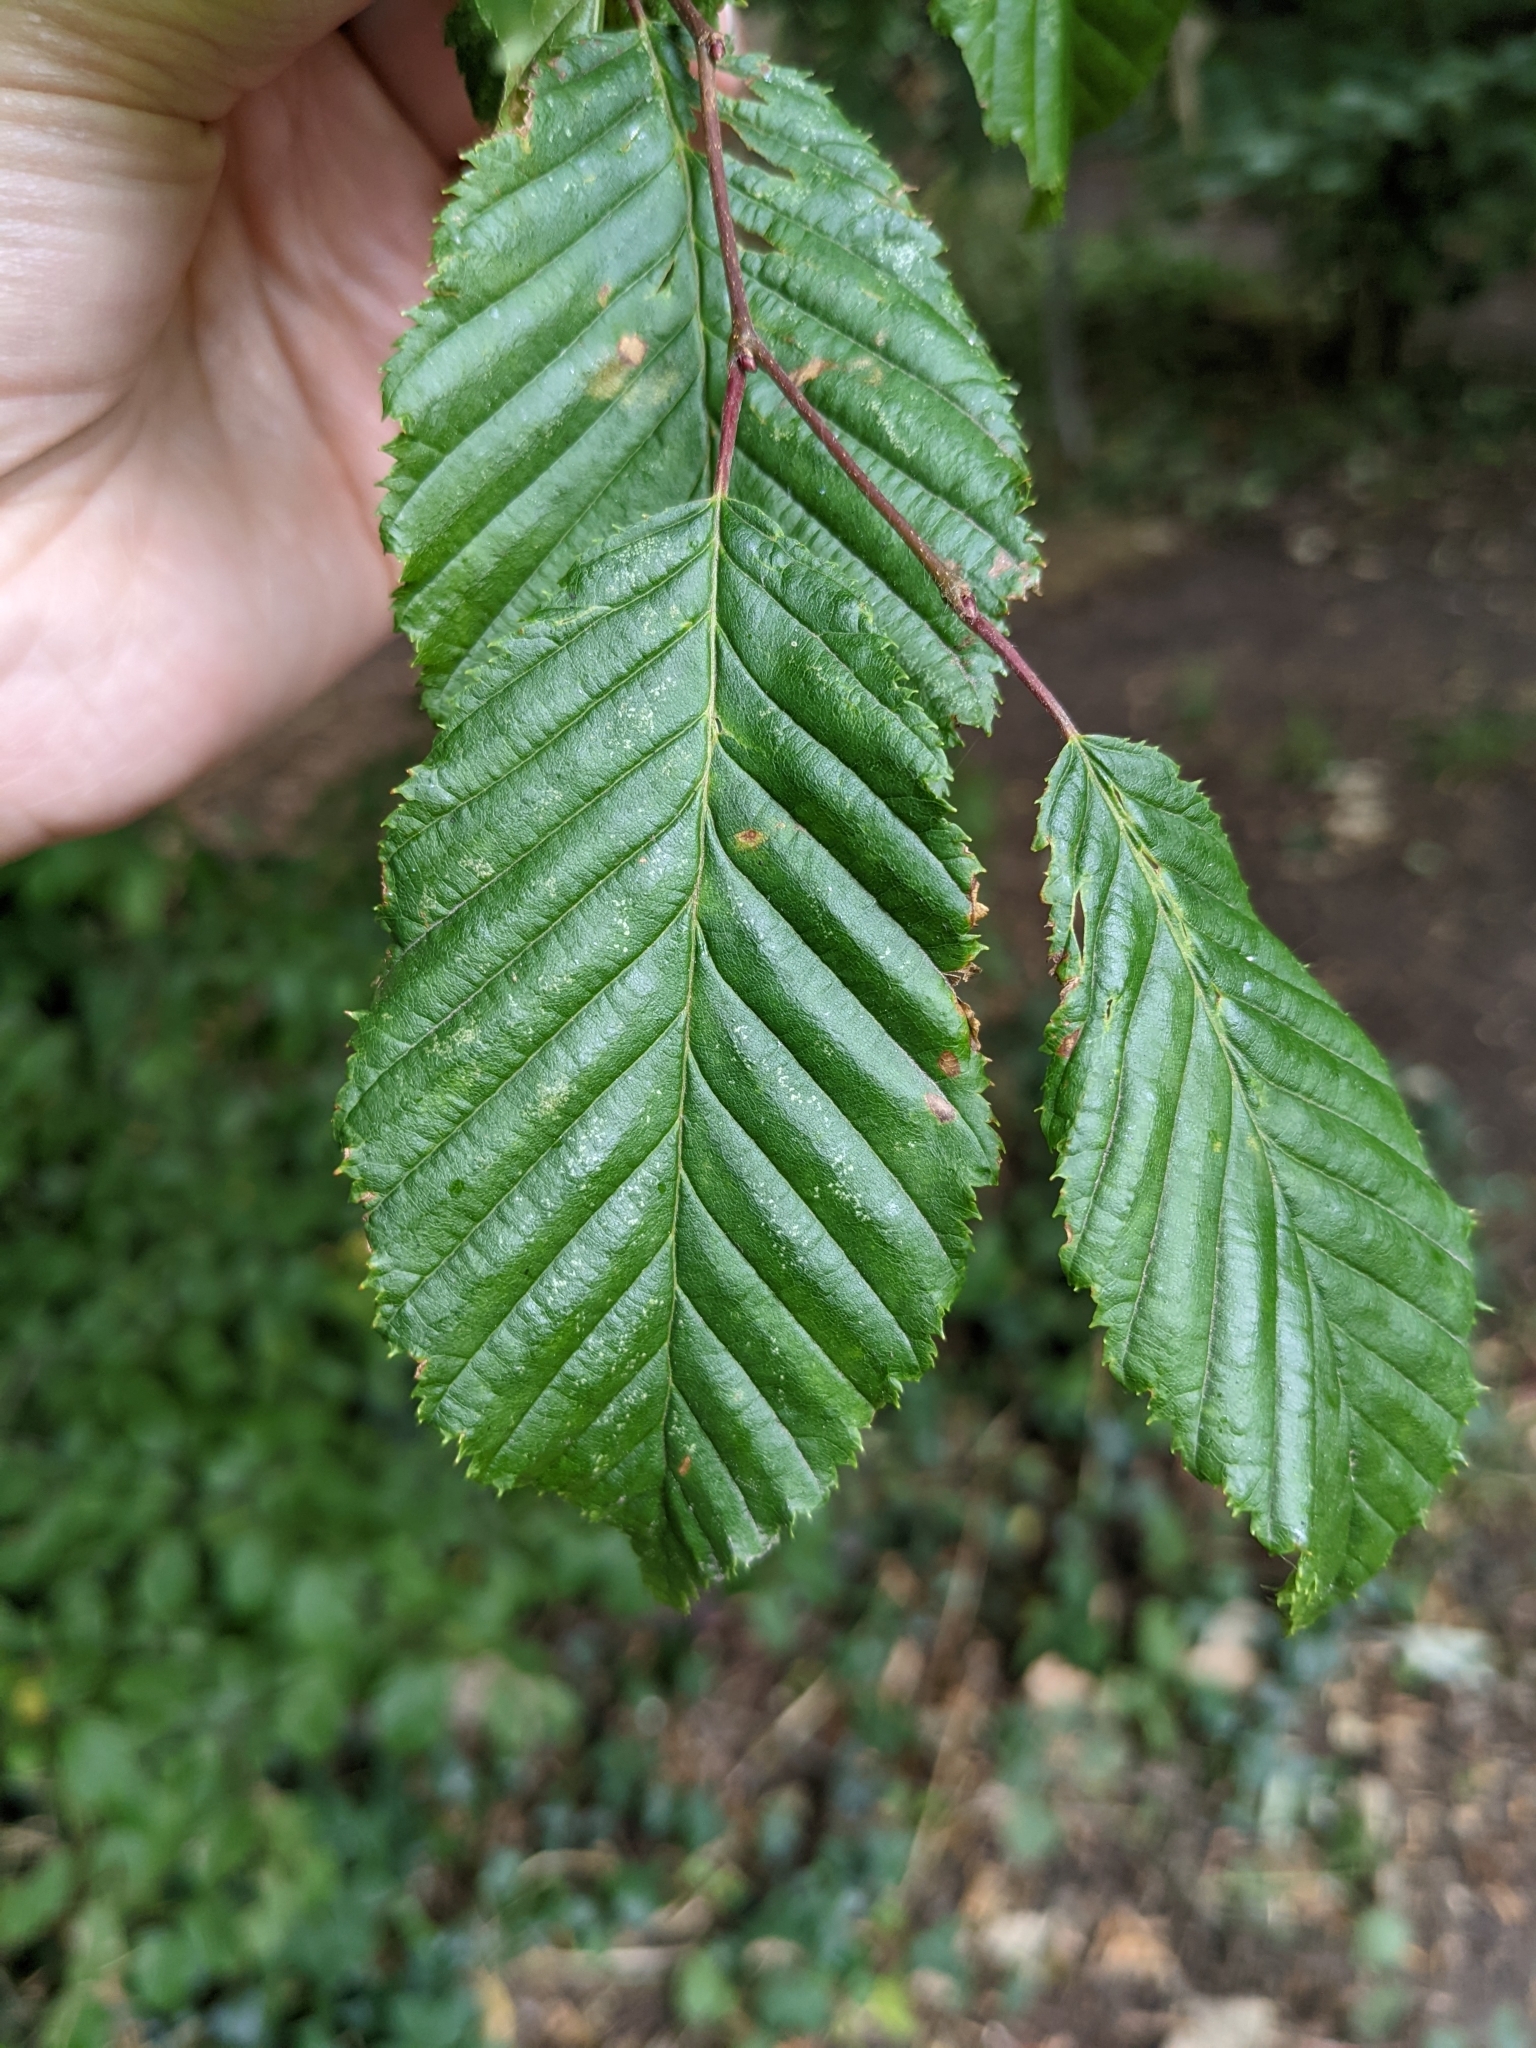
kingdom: Plantae
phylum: Tracheophyta
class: Magnoliopsida
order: Fagales
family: Betulaceae
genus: Carpinus
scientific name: Carpinus betulus
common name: Hornbeam
